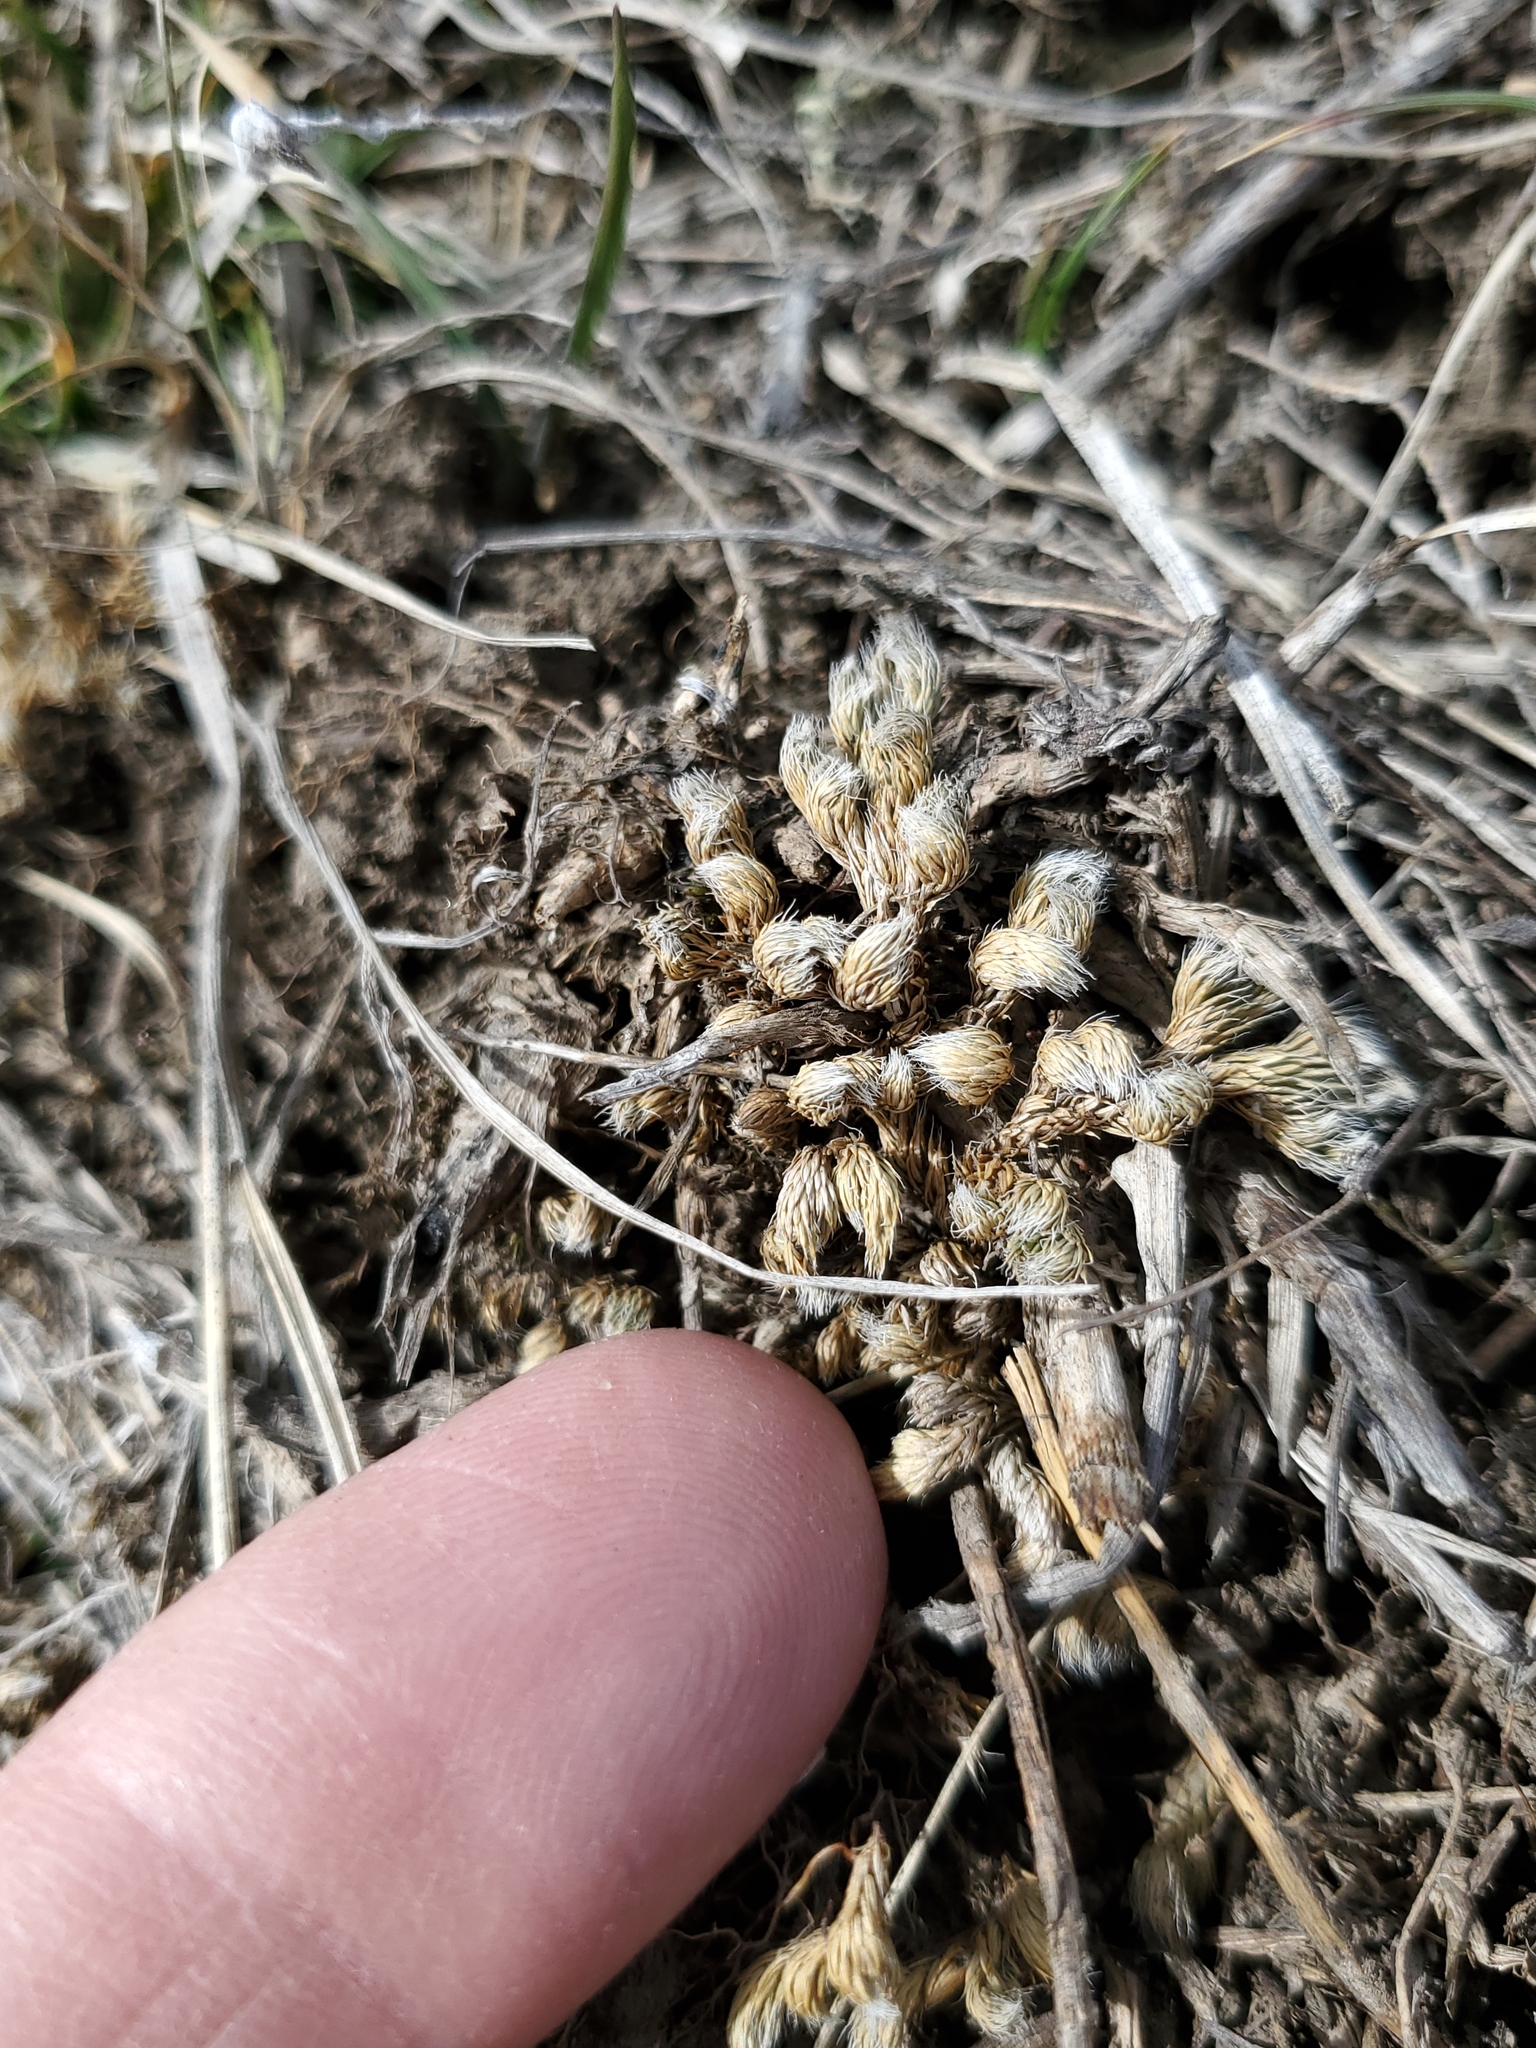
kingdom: Plantae
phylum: Tracheophyta
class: Lycopodiopsida
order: Selaginellales
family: Selaginellaceae
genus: Selaginella
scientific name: Selaginella densa
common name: Mountain spike-moss
